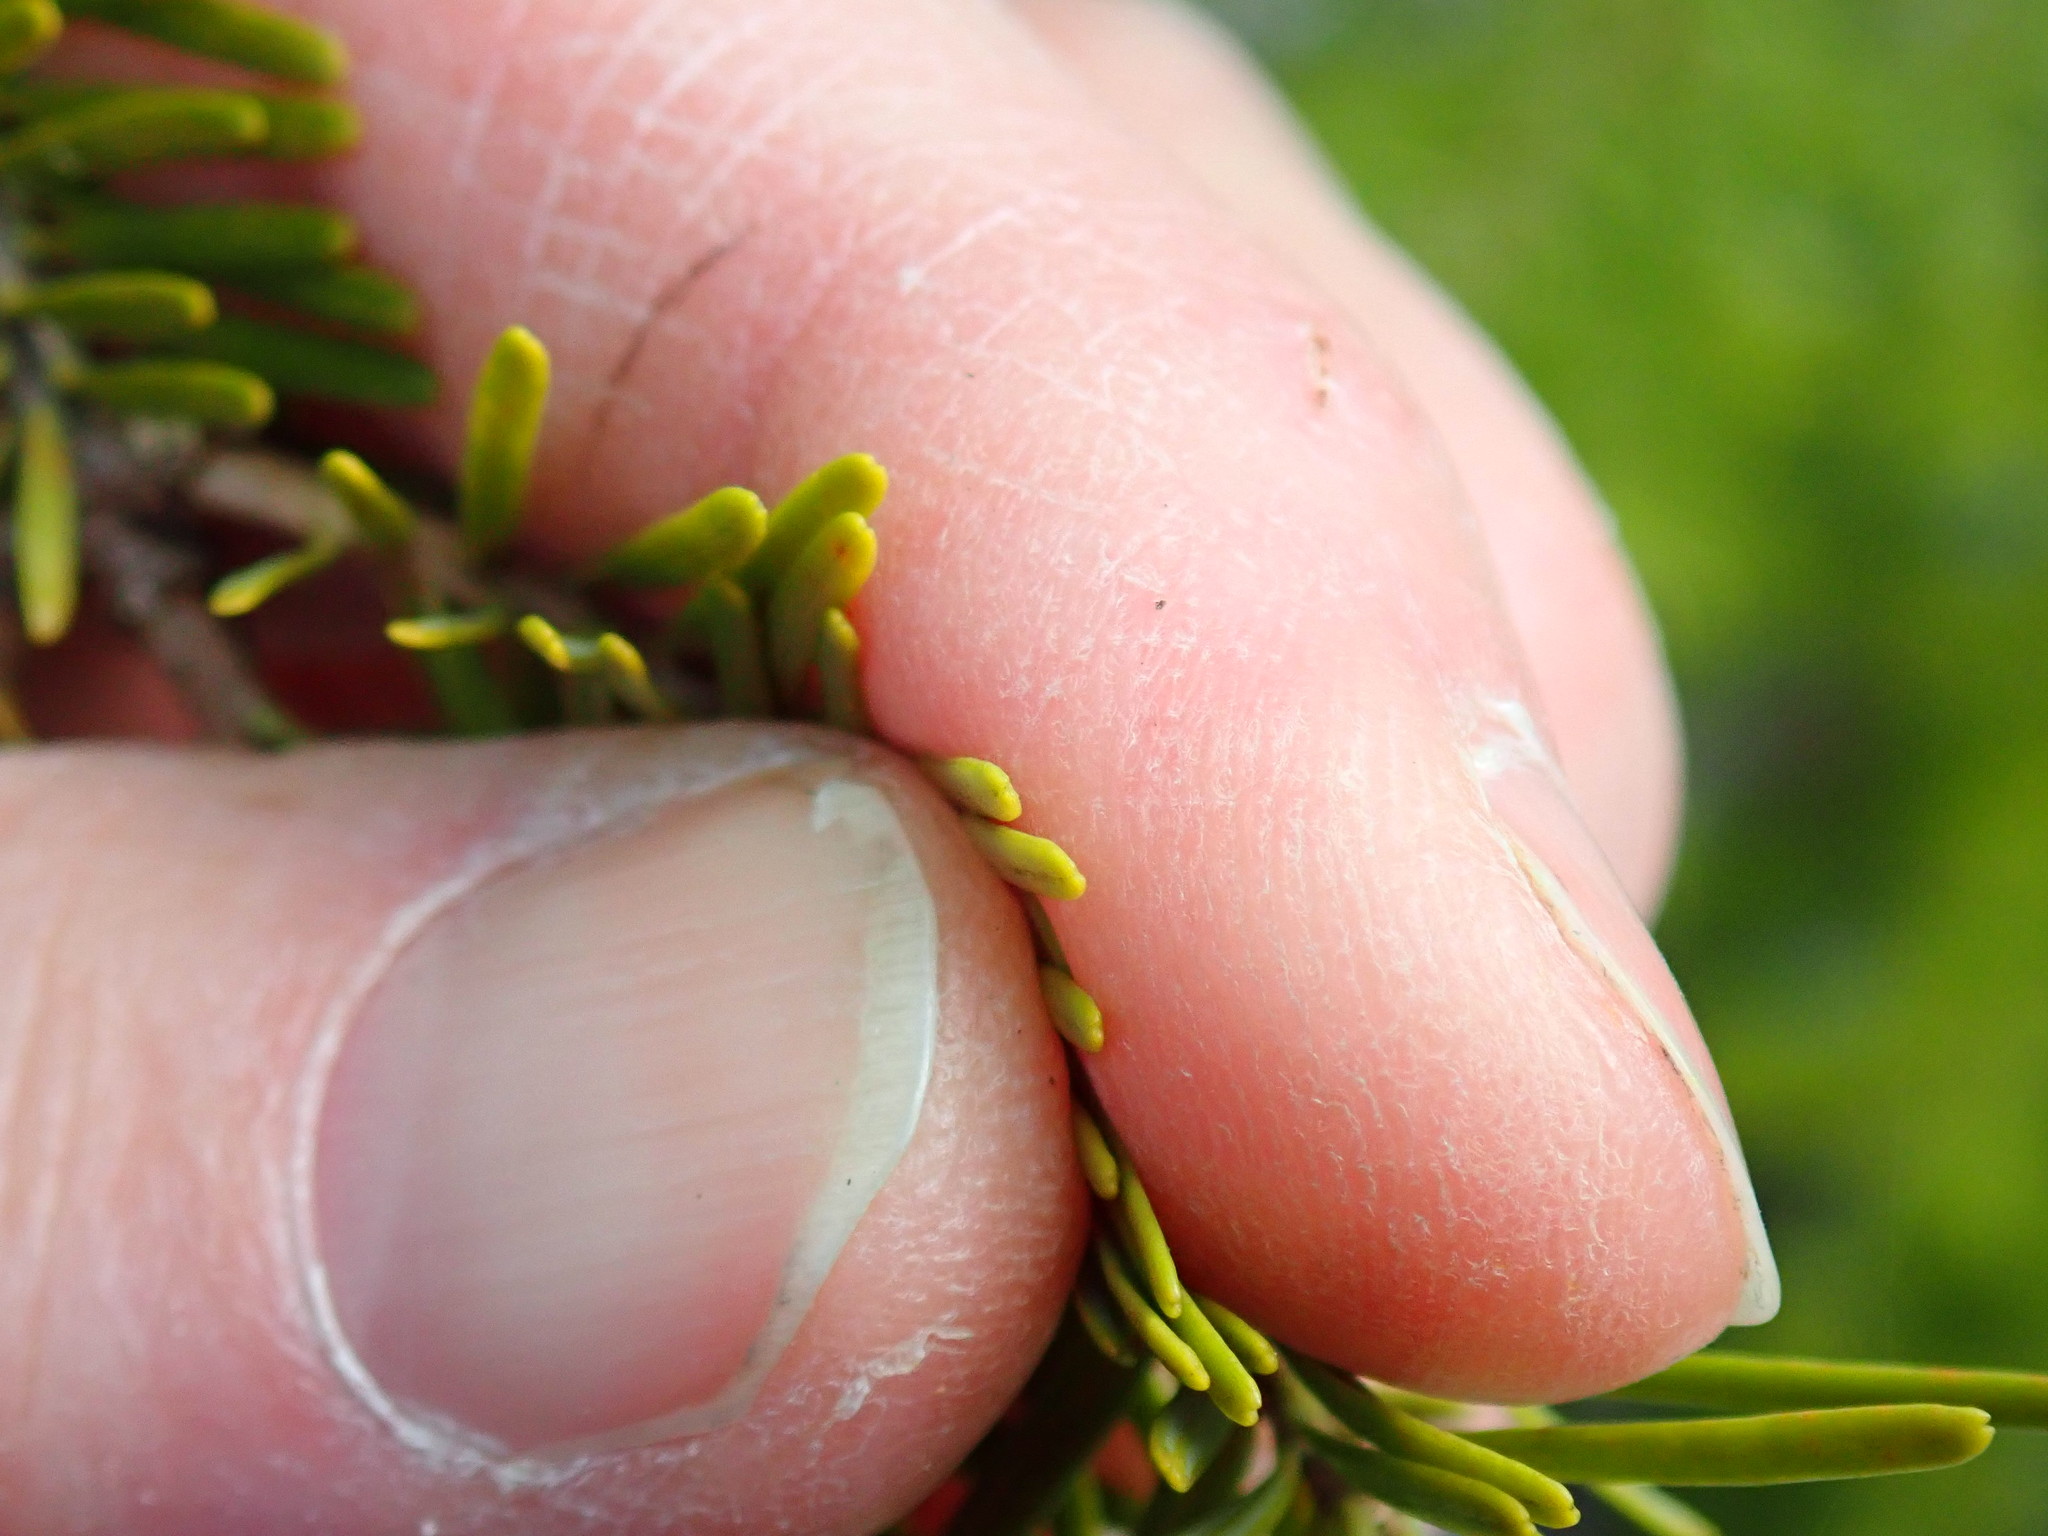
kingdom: Plantae
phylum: Tracheophyta
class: Pinopsida
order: Pinales
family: Pinaceae
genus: Abies
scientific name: Abies balsamea
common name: Balsam fir
